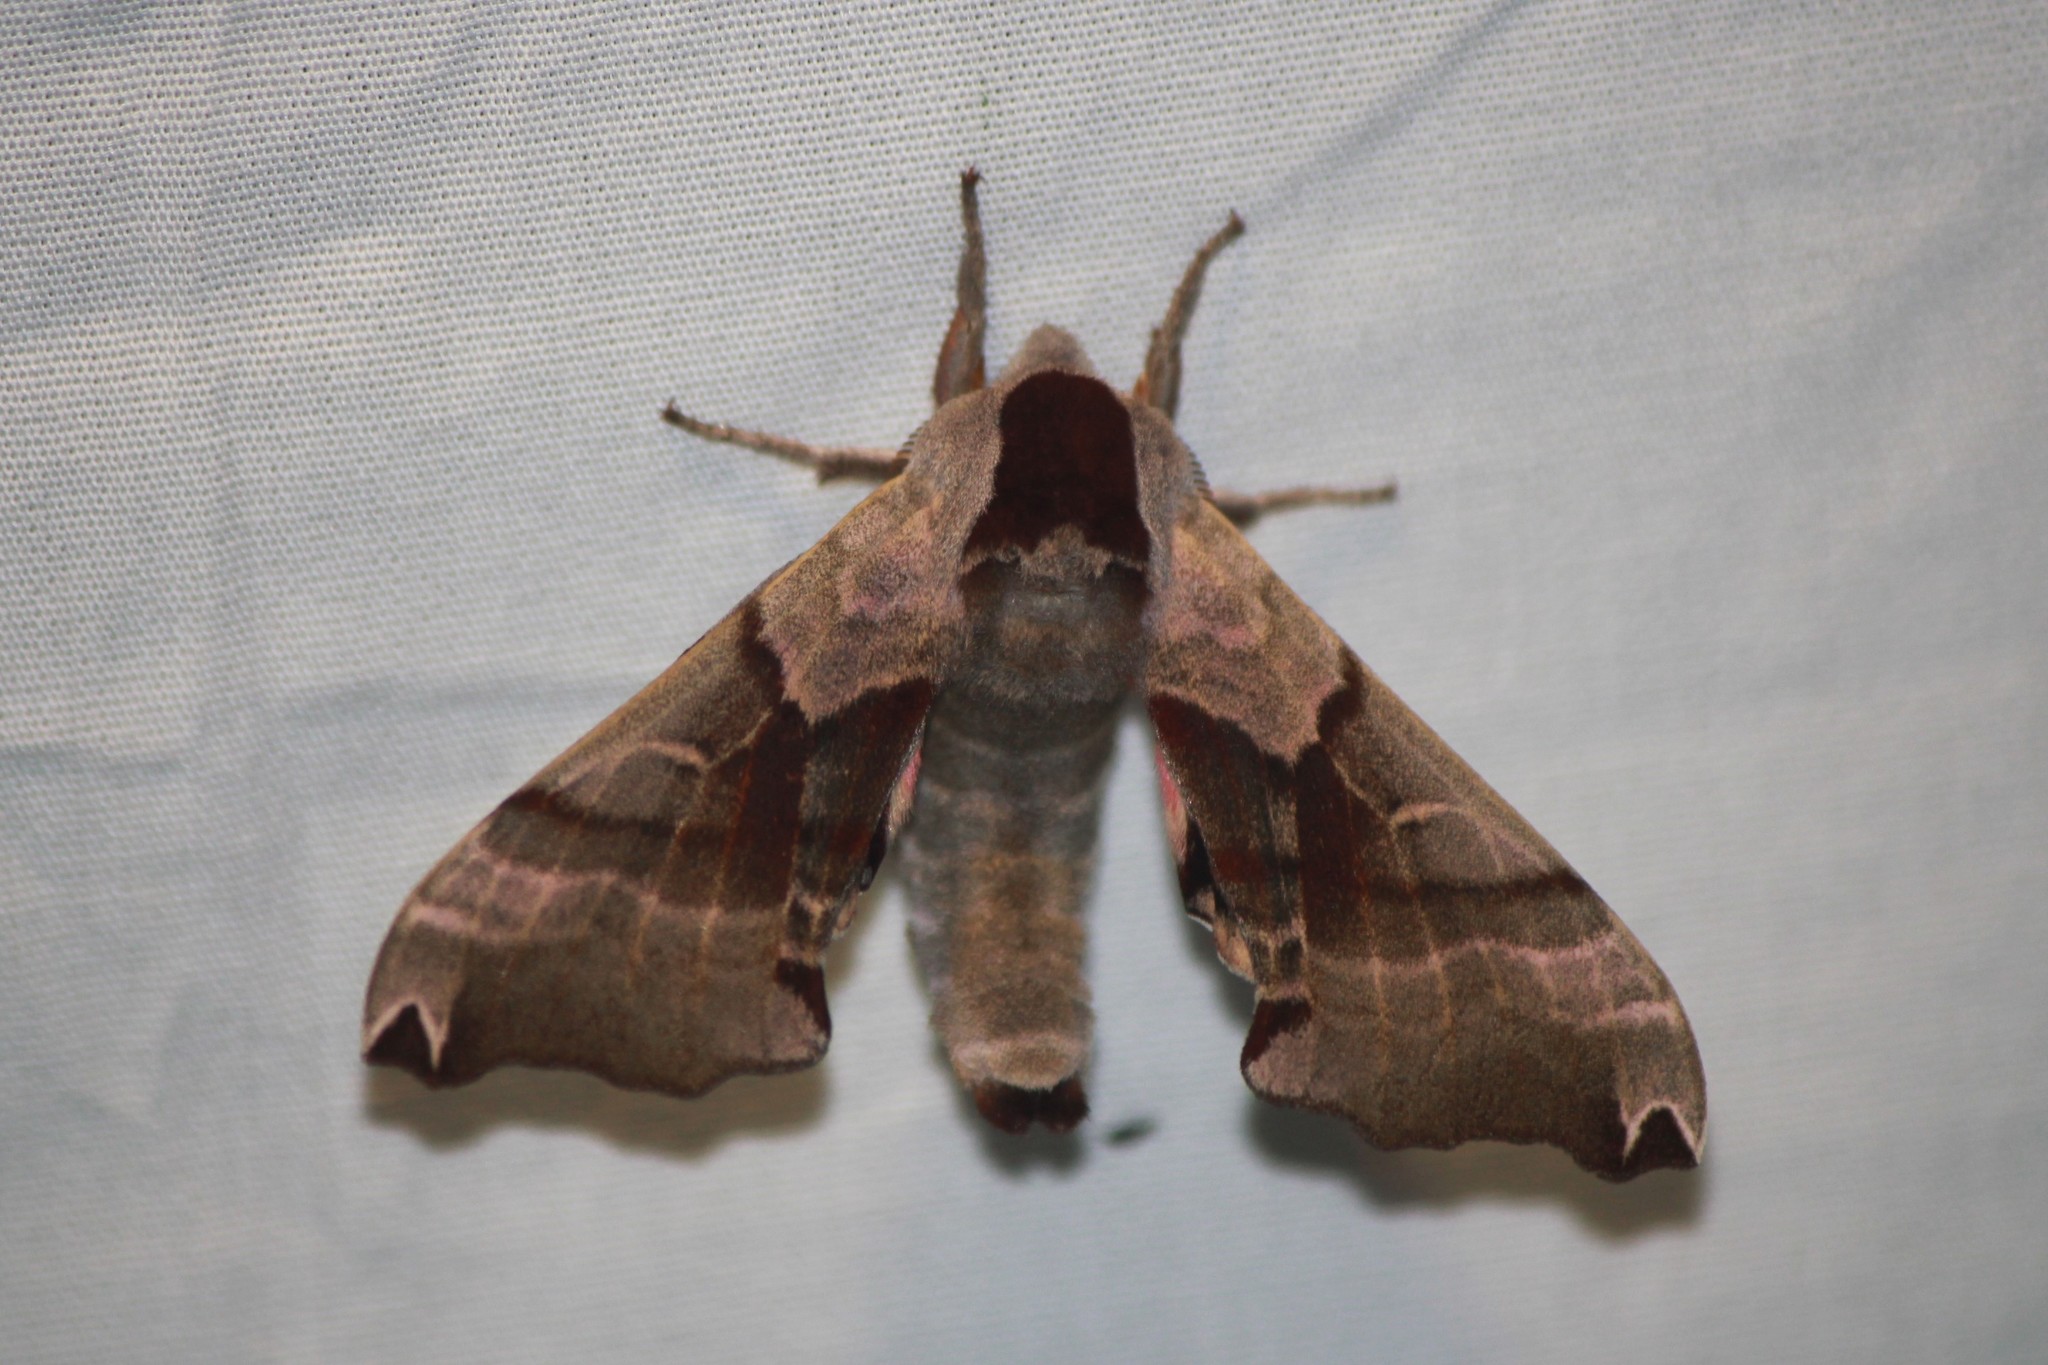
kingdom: Animalia
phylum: Arthropoda
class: Insecta
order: Lepidoptera
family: Sphingidae
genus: Smerinthus
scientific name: Smerinthus jamaicensis
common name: Twin spotted sphinx
